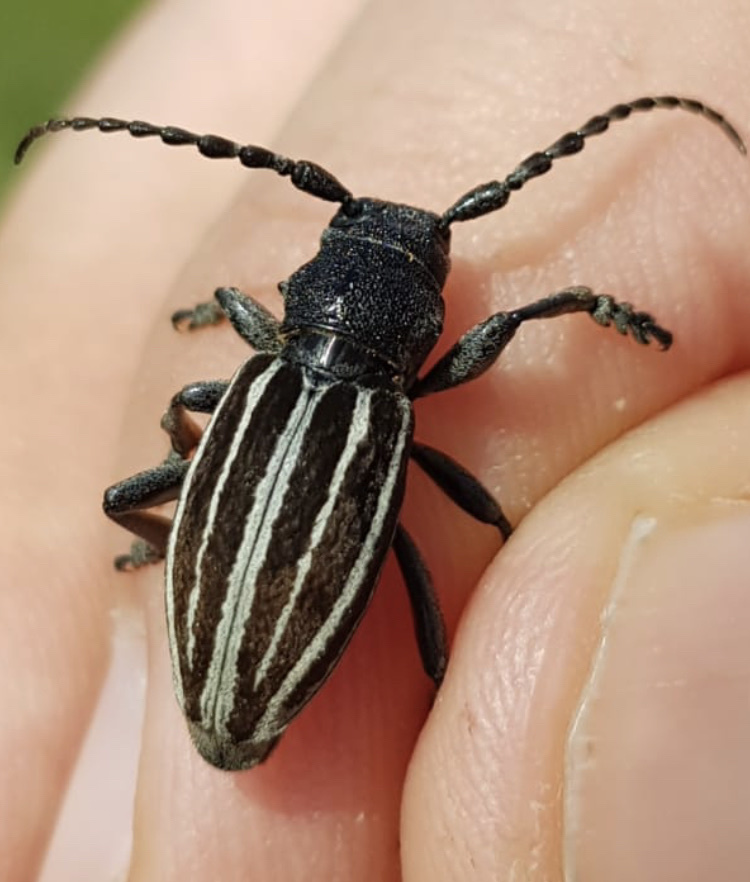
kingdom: Animalia
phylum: Arthropoda
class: Insecta
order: Coleoptera
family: Cerambycidae
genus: Iberodorcadion
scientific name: Iberodorcadion fuliginator
